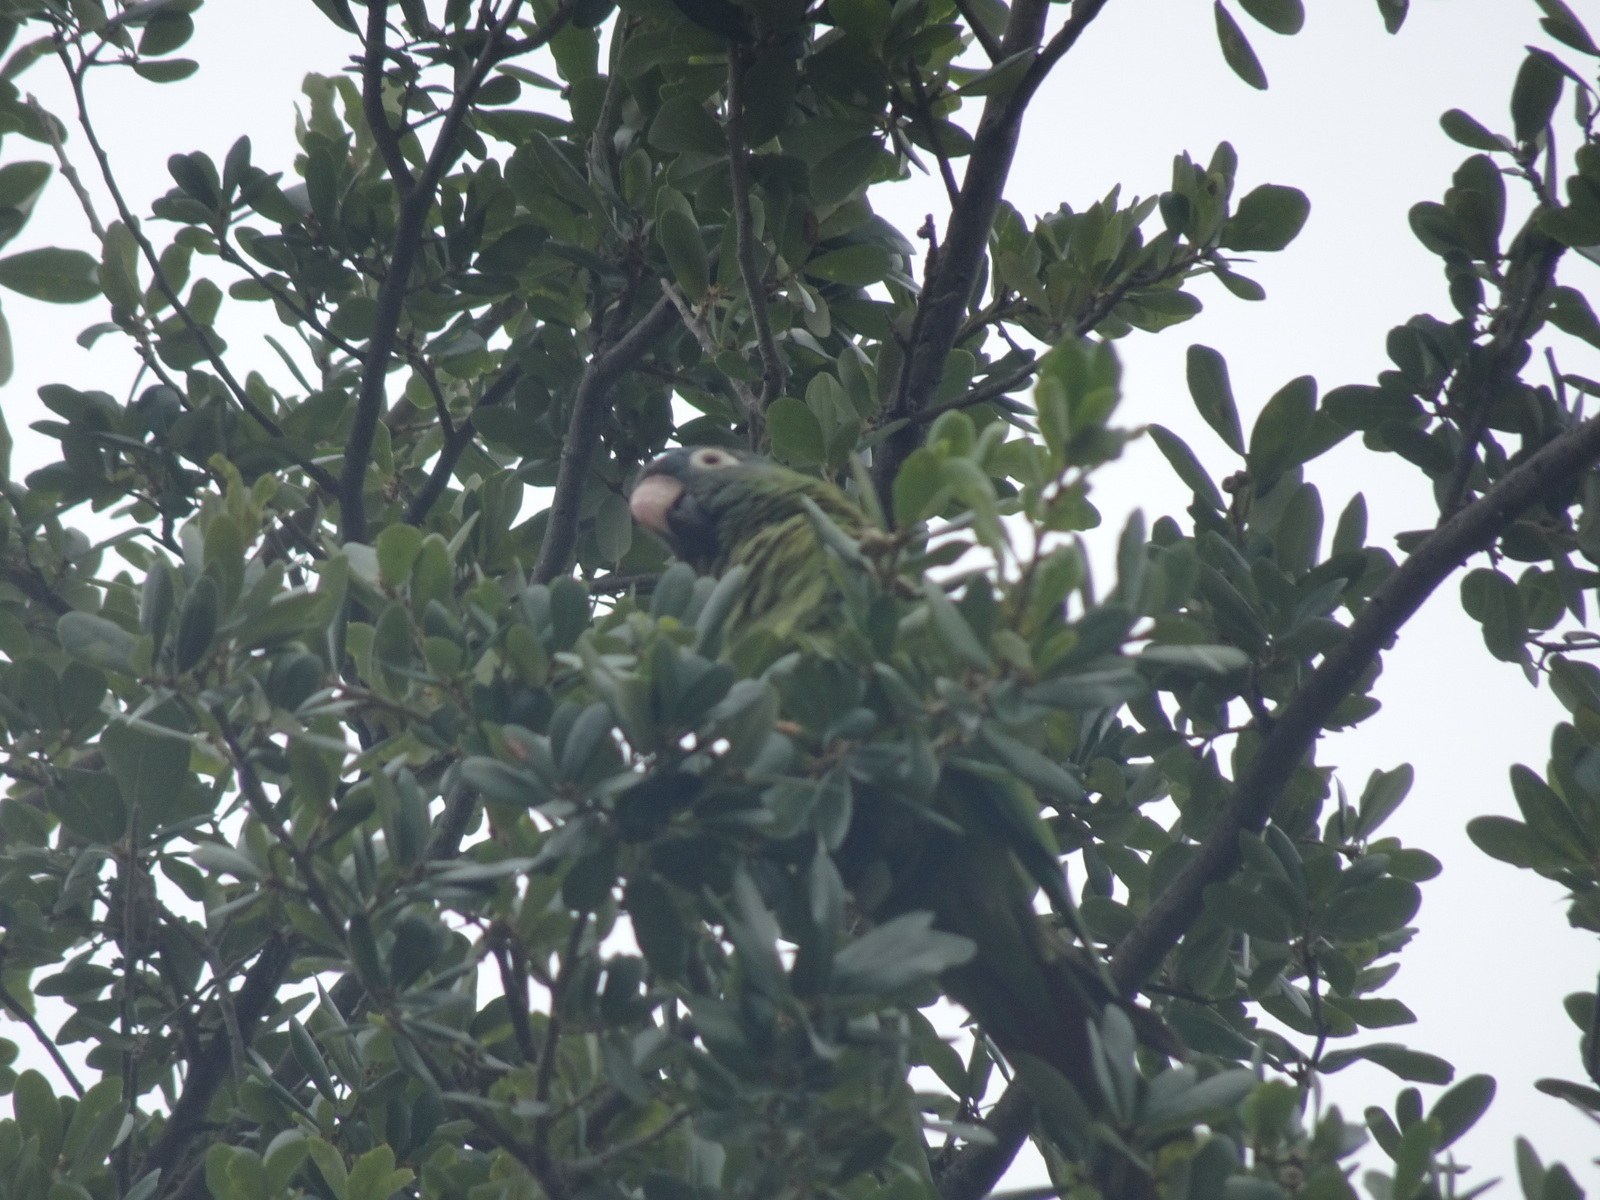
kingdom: Animalia
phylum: Chordata
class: Aves
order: Psittaciformes
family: Psittacidae
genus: Aratinga
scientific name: Aratinga acuticaudata
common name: Blue-crowned parakeet
